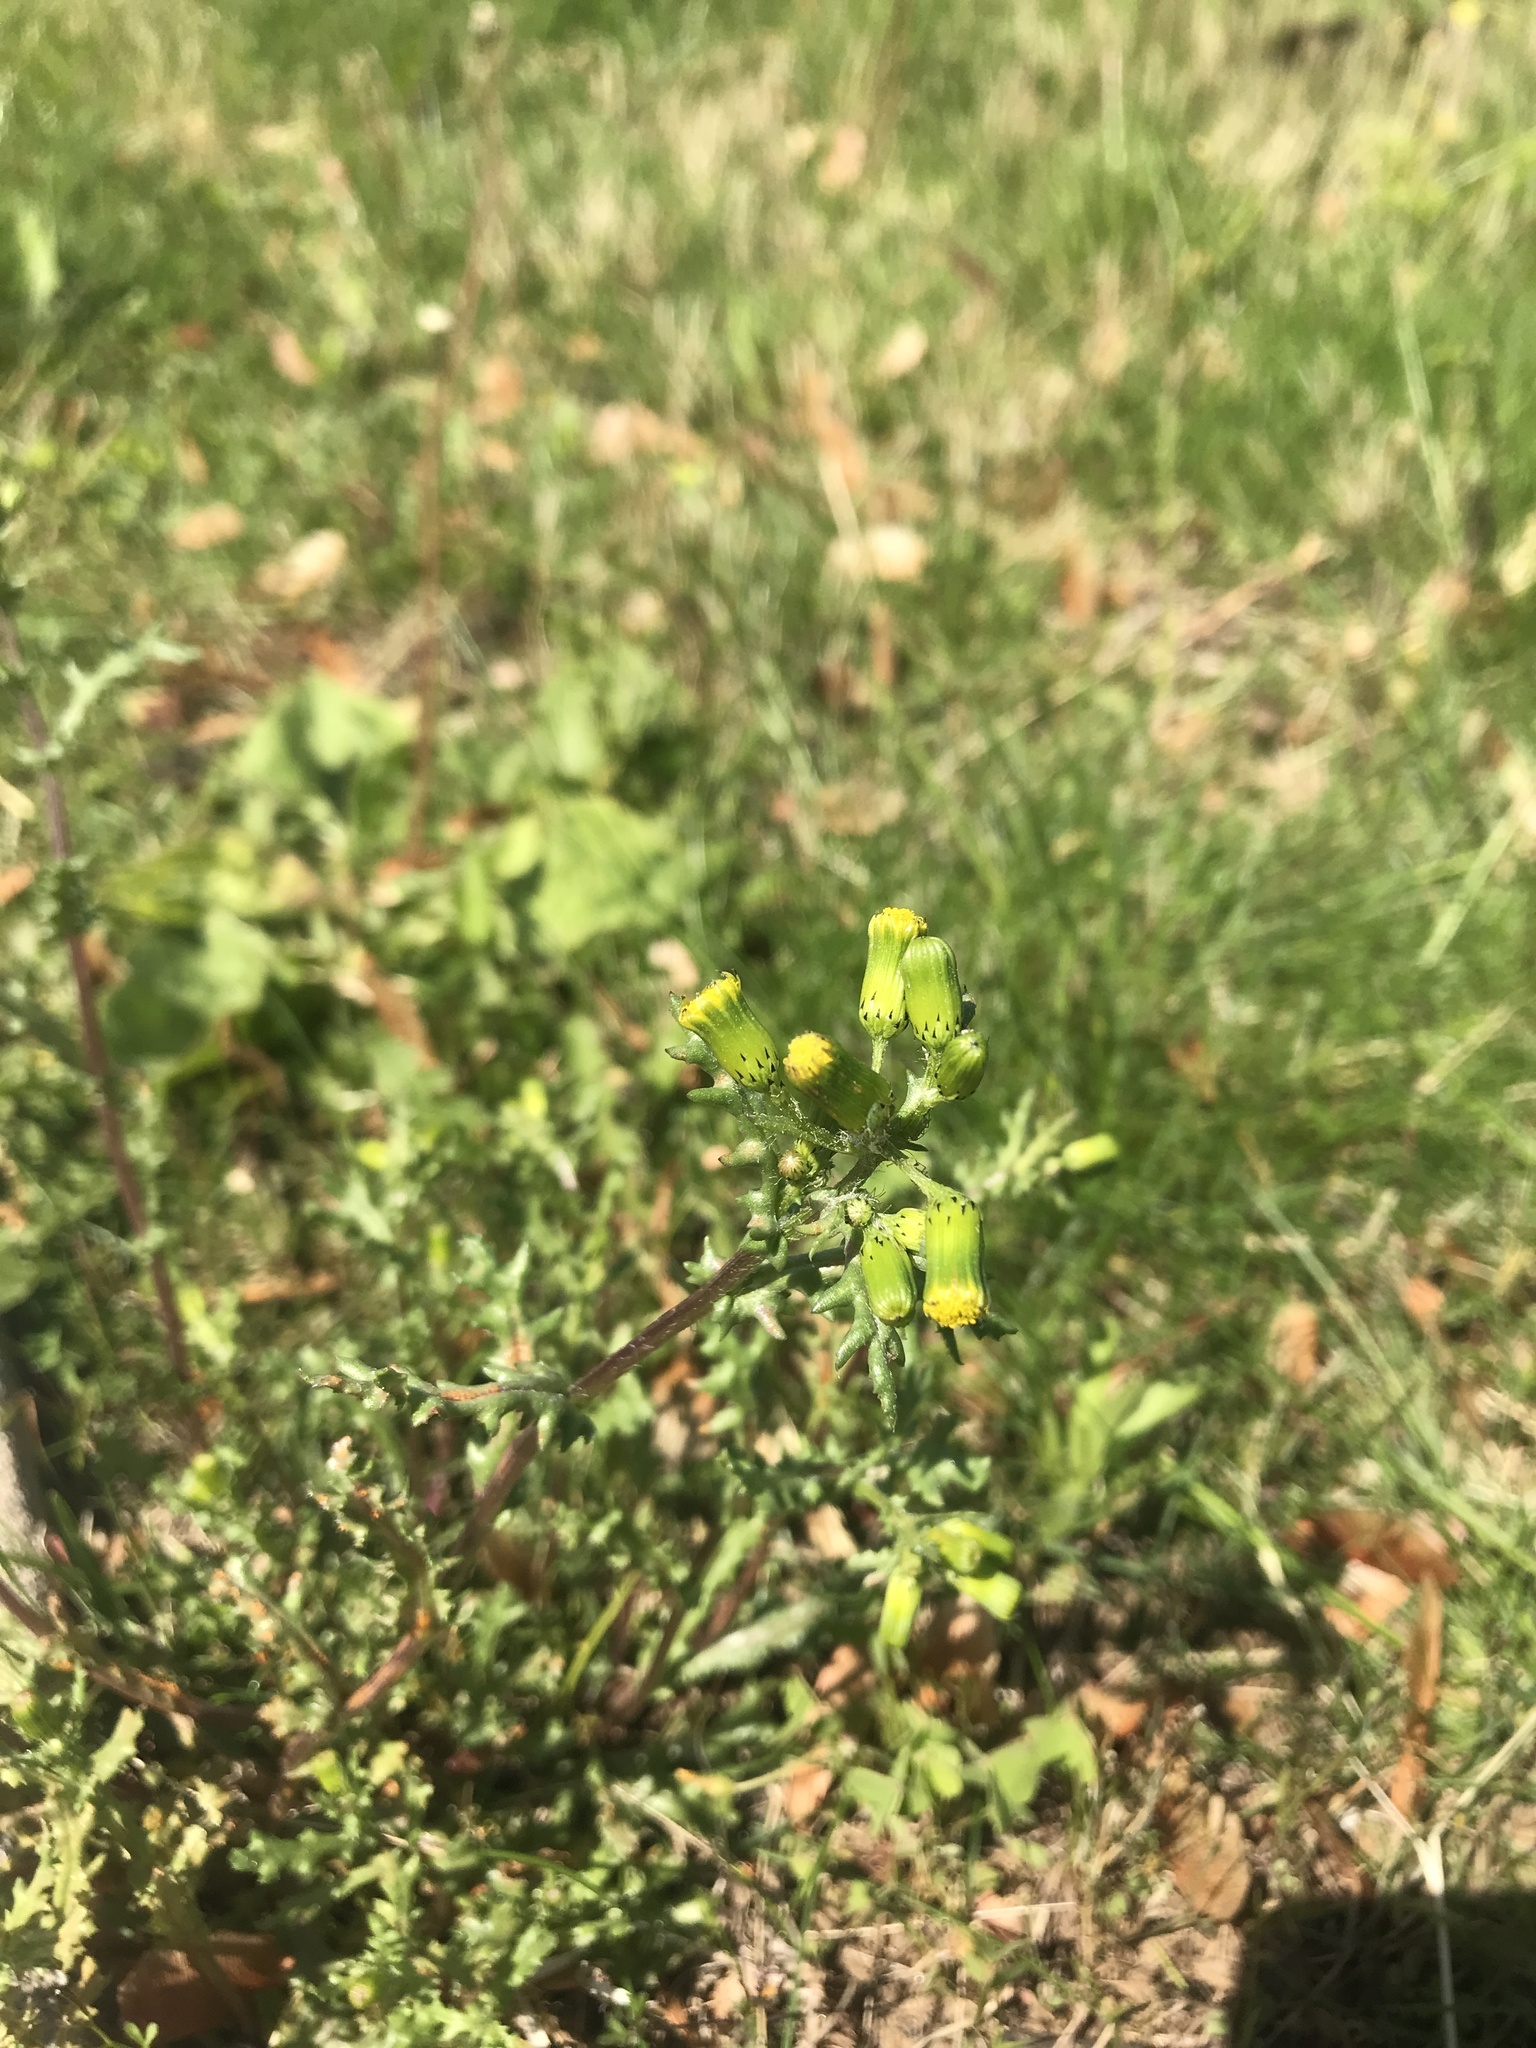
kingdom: Plantae
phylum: Tracheophyta
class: Magnoliopsida
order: Asterales
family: Asteraceae
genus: Senecio
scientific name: Senecio vulgaris
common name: Old-man-in-the-spring
